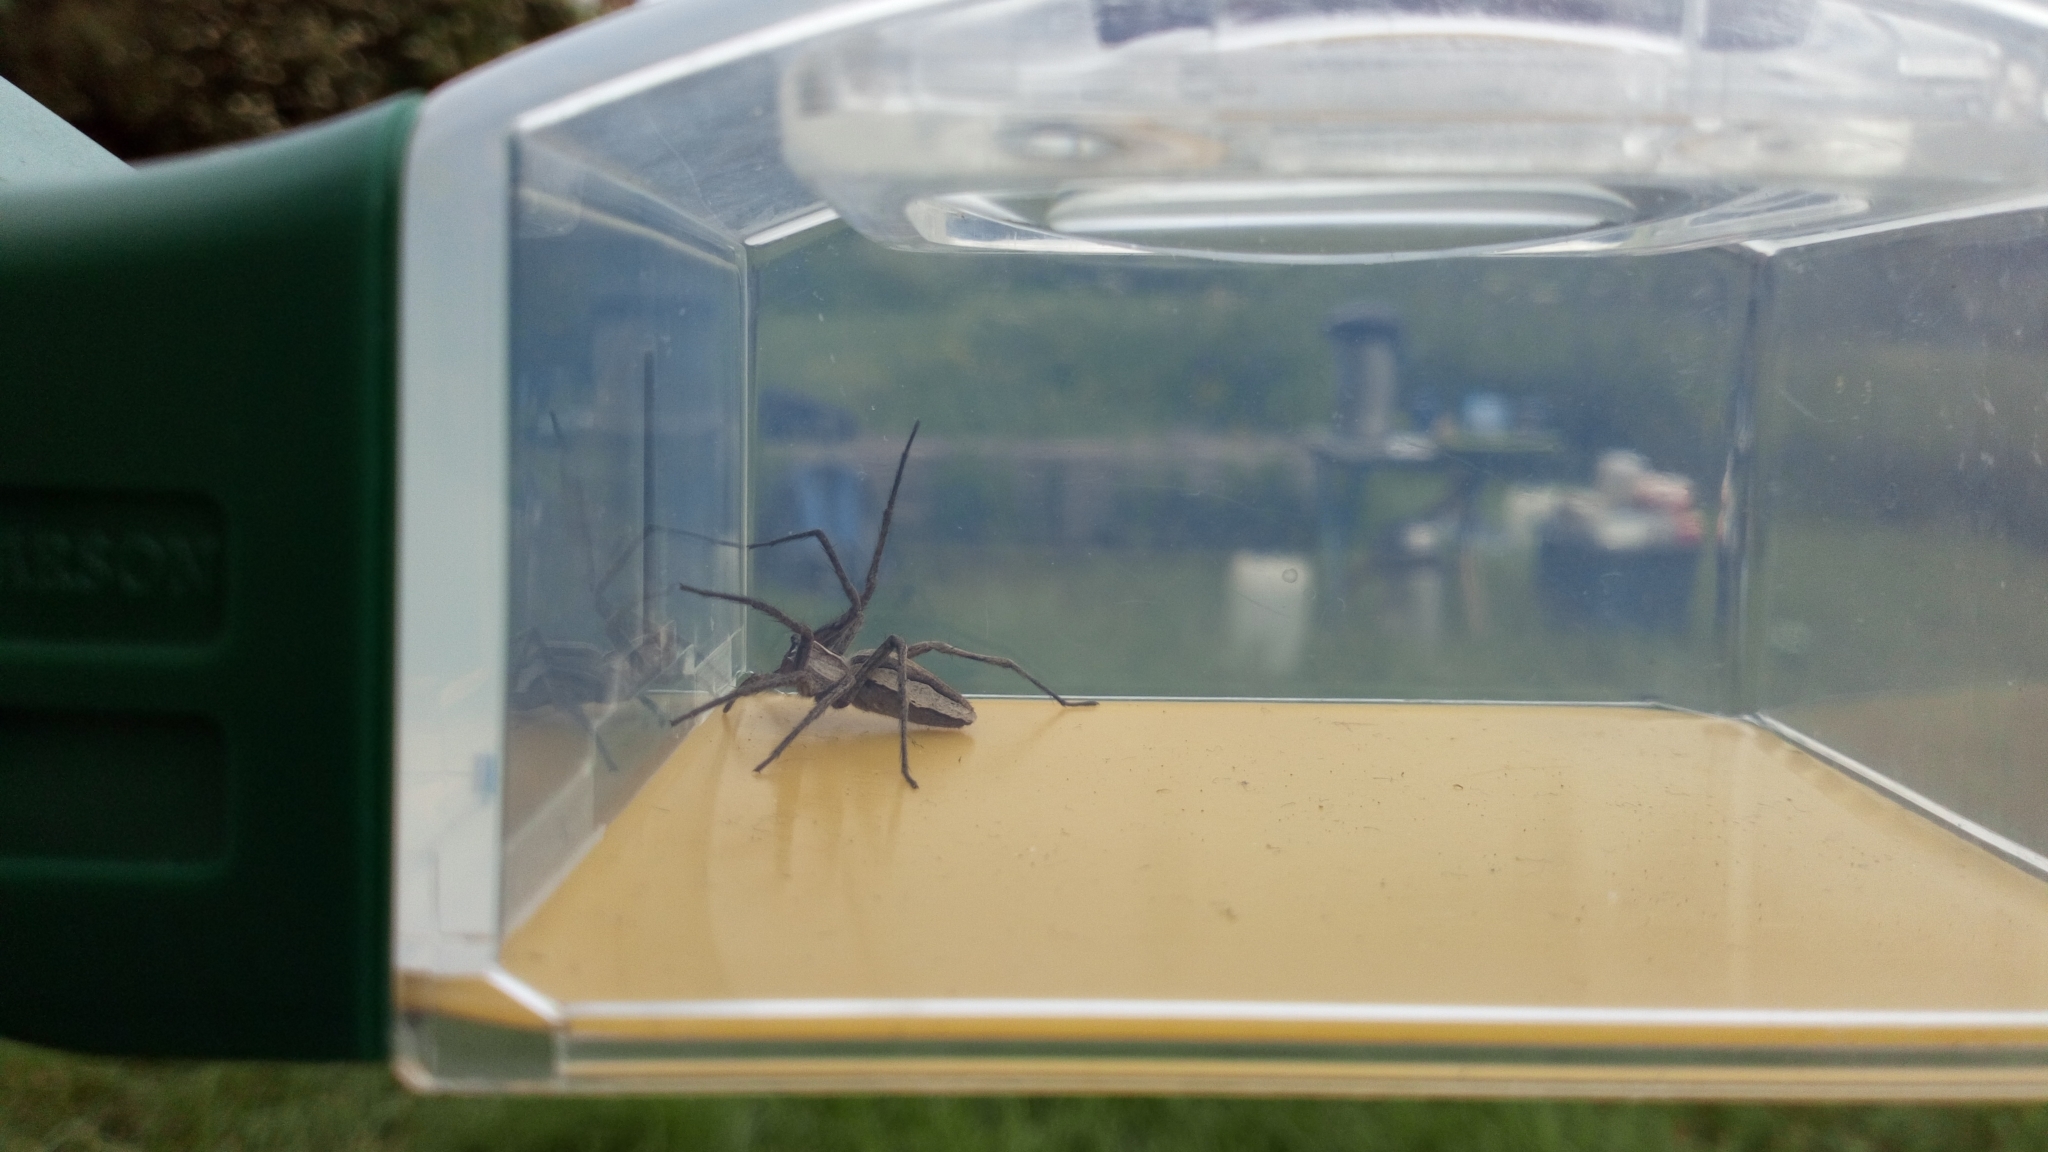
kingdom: Animalia
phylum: Arthropoda
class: Arachnida
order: Araneae
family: Pisauridae
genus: Pisaura
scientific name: Pisaura mirabilis
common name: Tent spider
